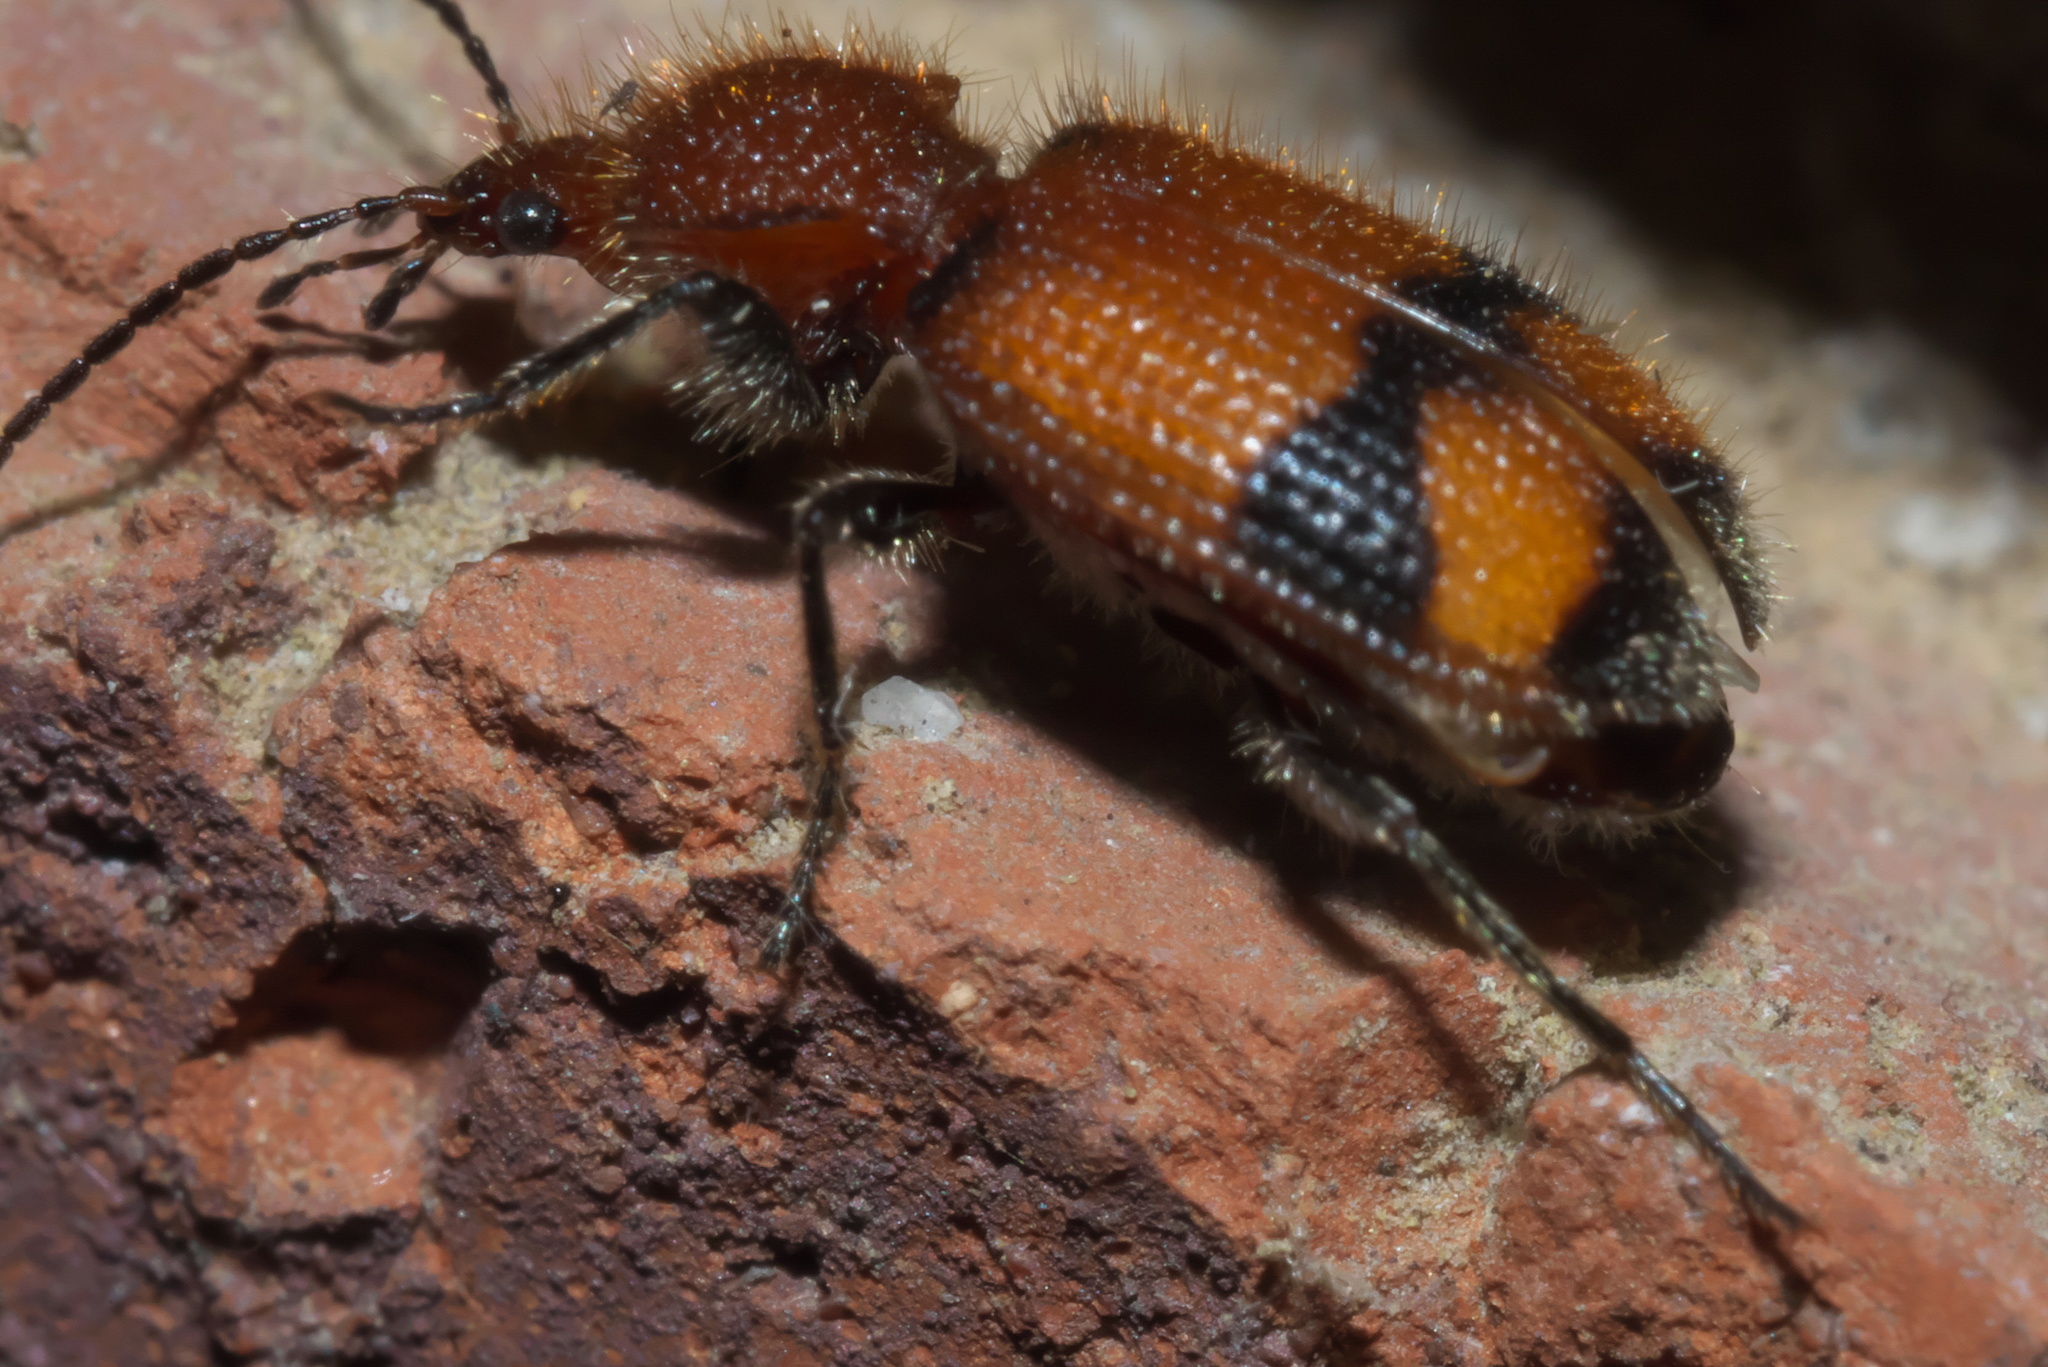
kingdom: Animalia
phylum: Arthropoda
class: Insecta
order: Coleoptera
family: Carabidae
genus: Panagaeus
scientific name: Panagaeus fasciatus
